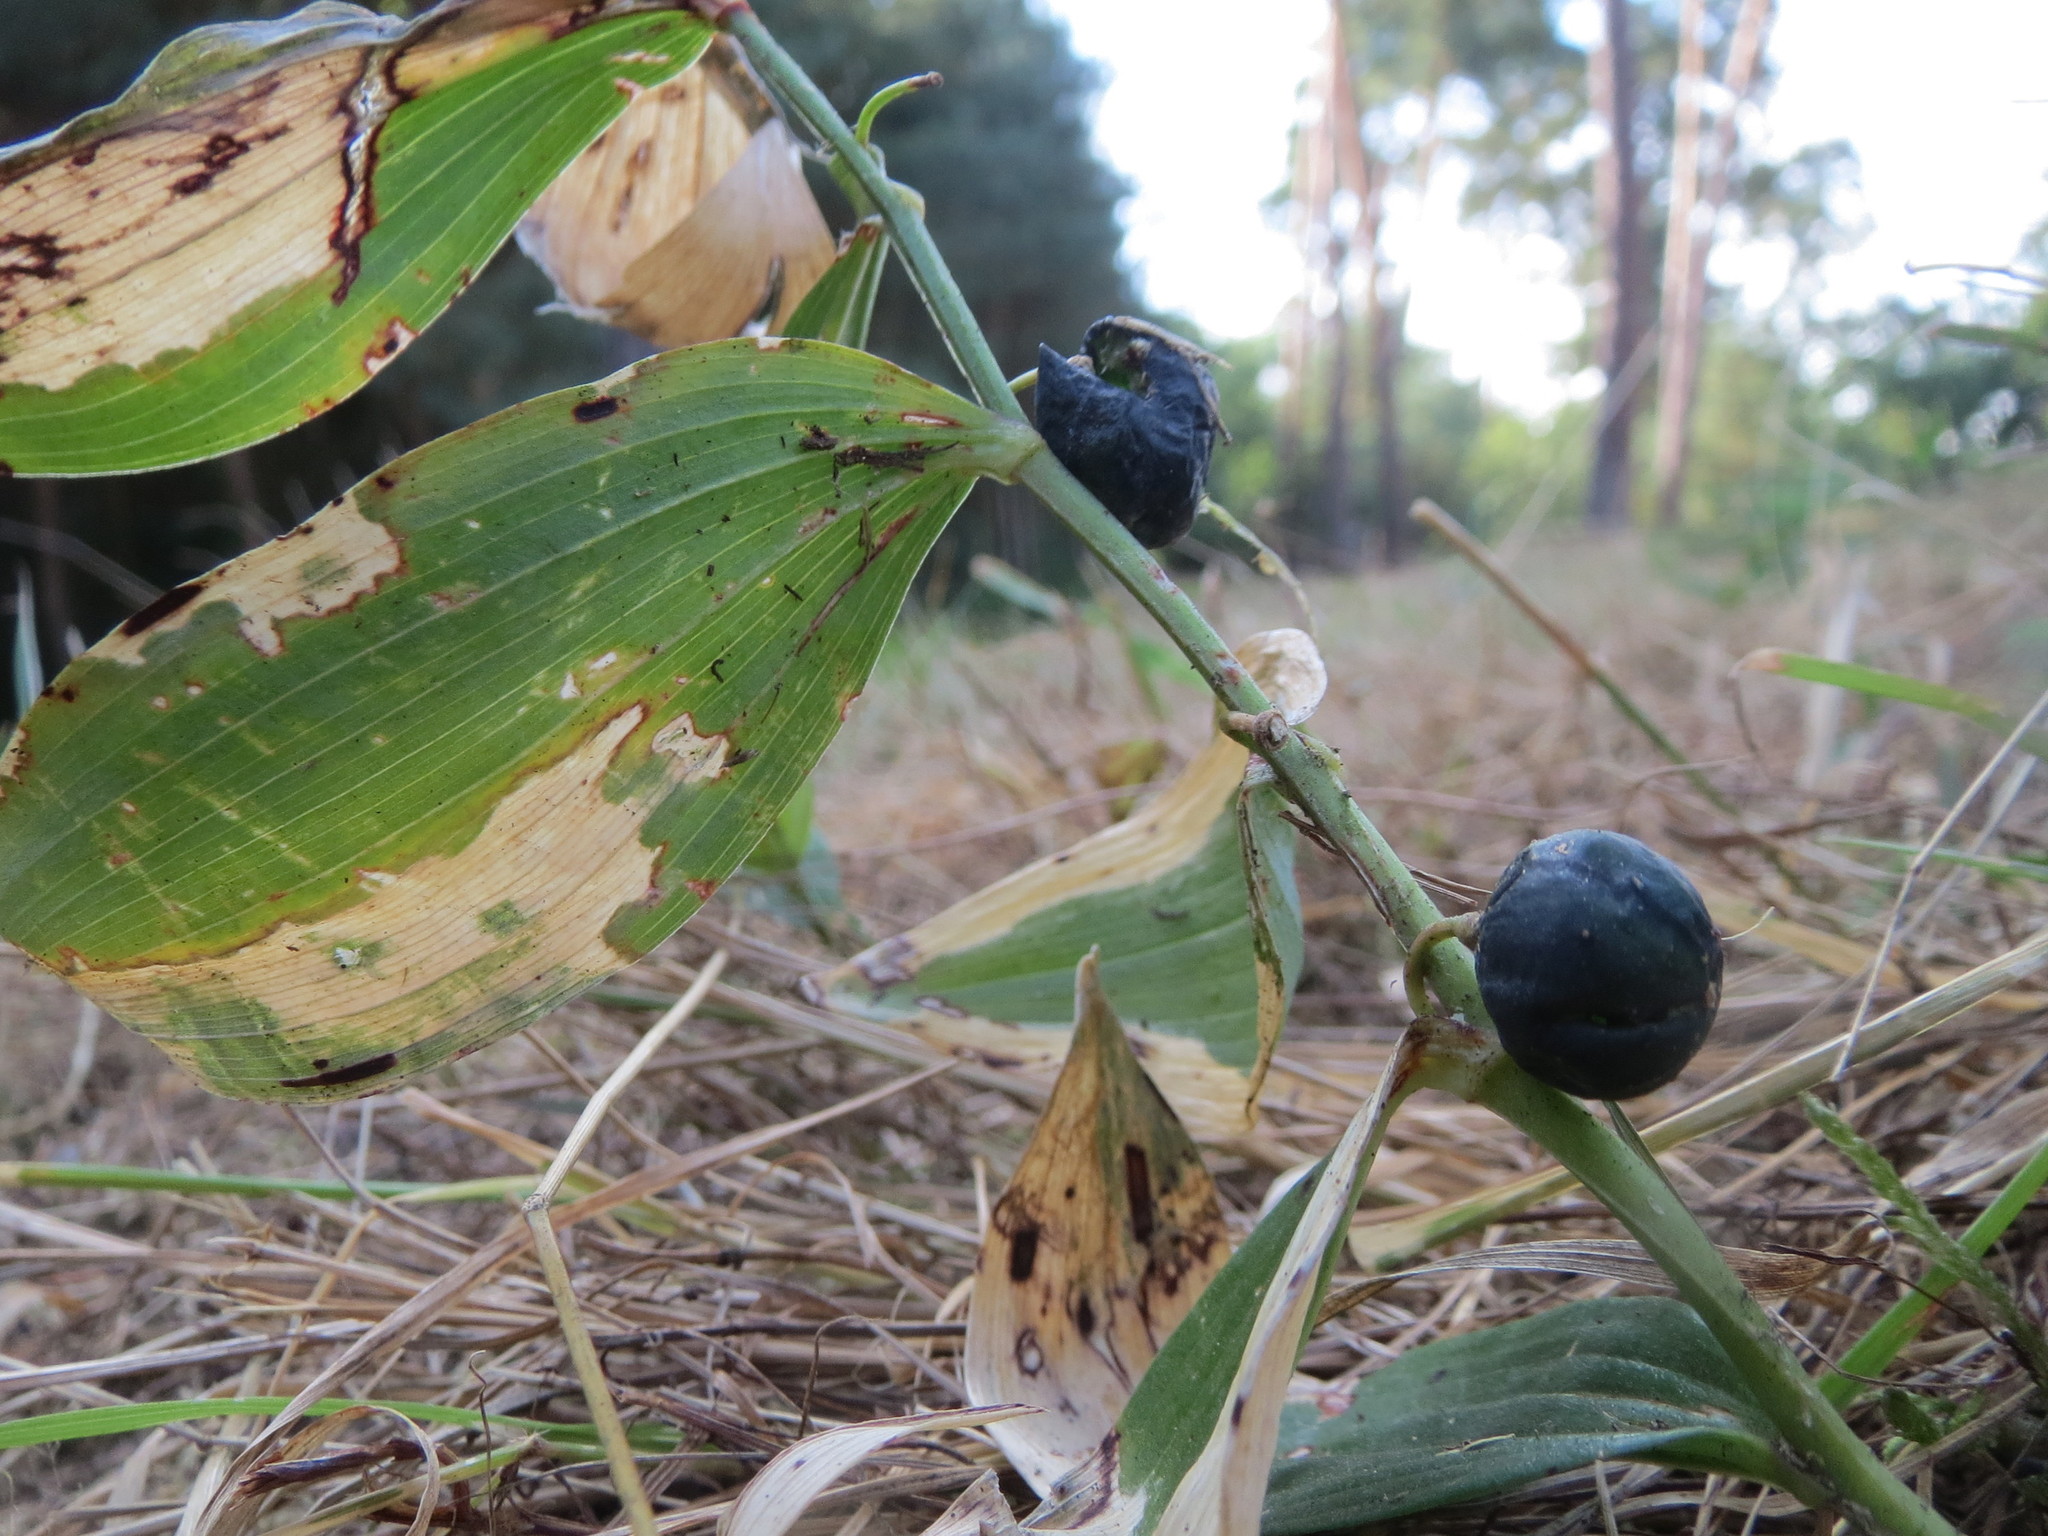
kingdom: Plantae
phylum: Tracheophyta
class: Liliopsida
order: Asparagales
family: Asparagaceae
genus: Polygonatum
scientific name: Polygonatum odoratum
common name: Angular solomon's-seal
